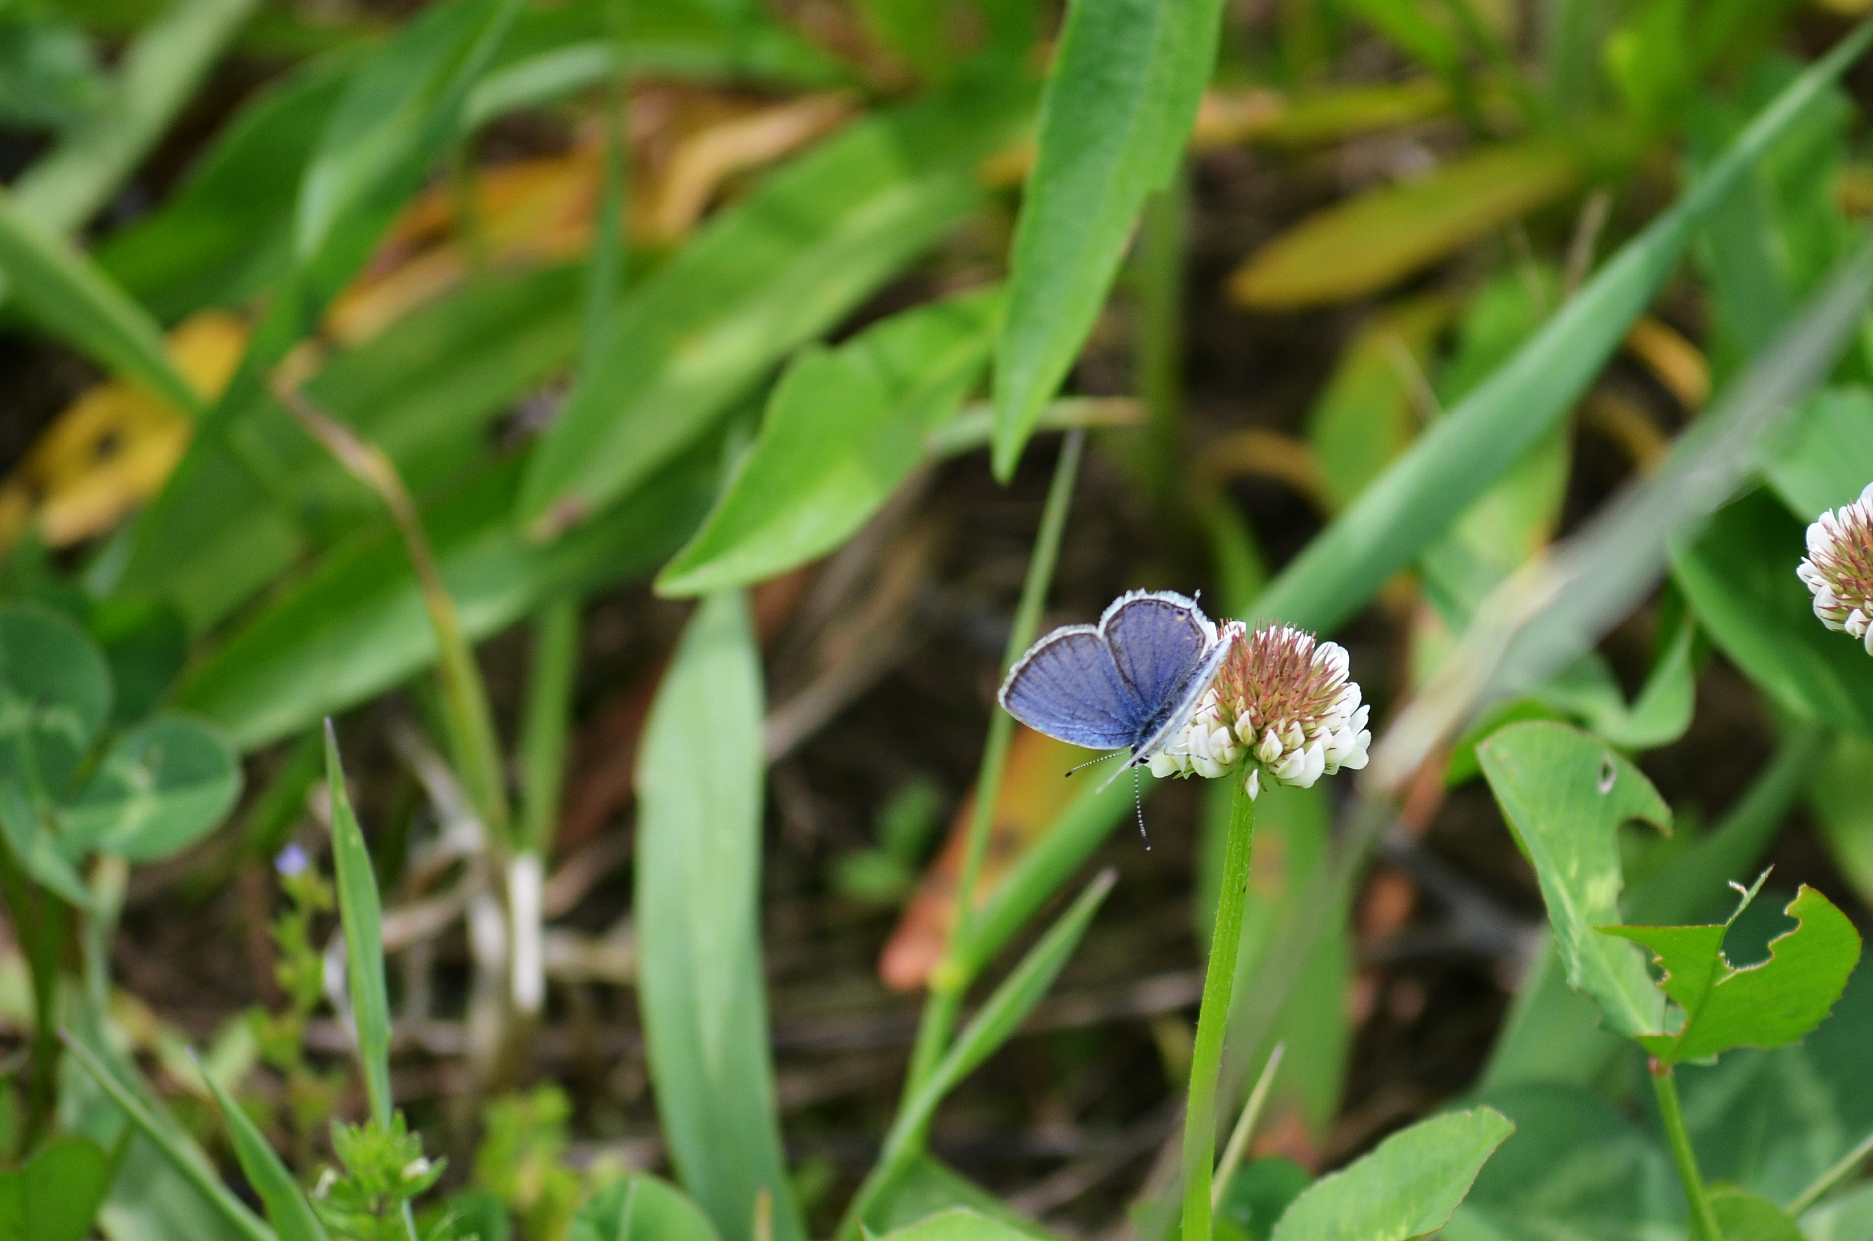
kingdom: Animalia
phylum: Arthropoda
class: Insecta
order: Lepidoptera
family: Lycaenidae
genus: Elkalyce
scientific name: Elkalyce comyntas
